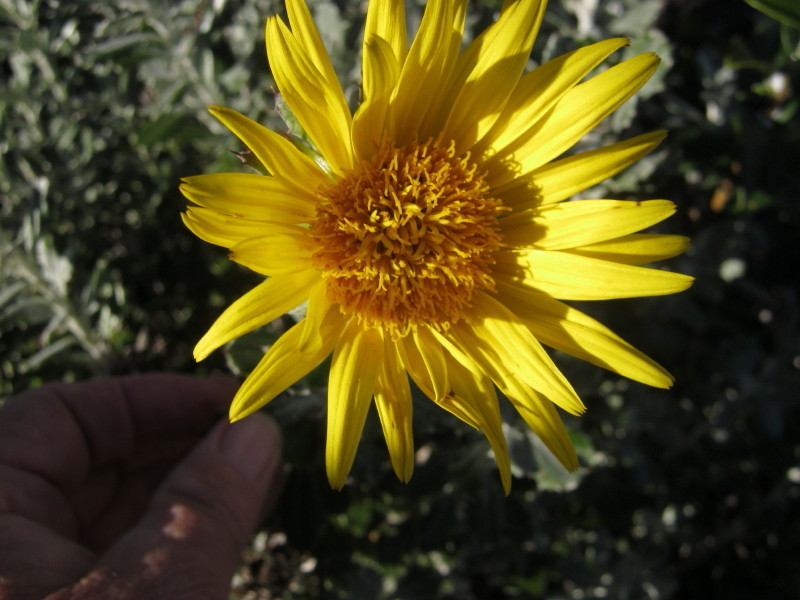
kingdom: Plantae
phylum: Tracheophyta
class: Magnoliopsida
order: Asterales
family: Asteraceae
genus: Berkheya
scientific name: Berkheya coriacea
